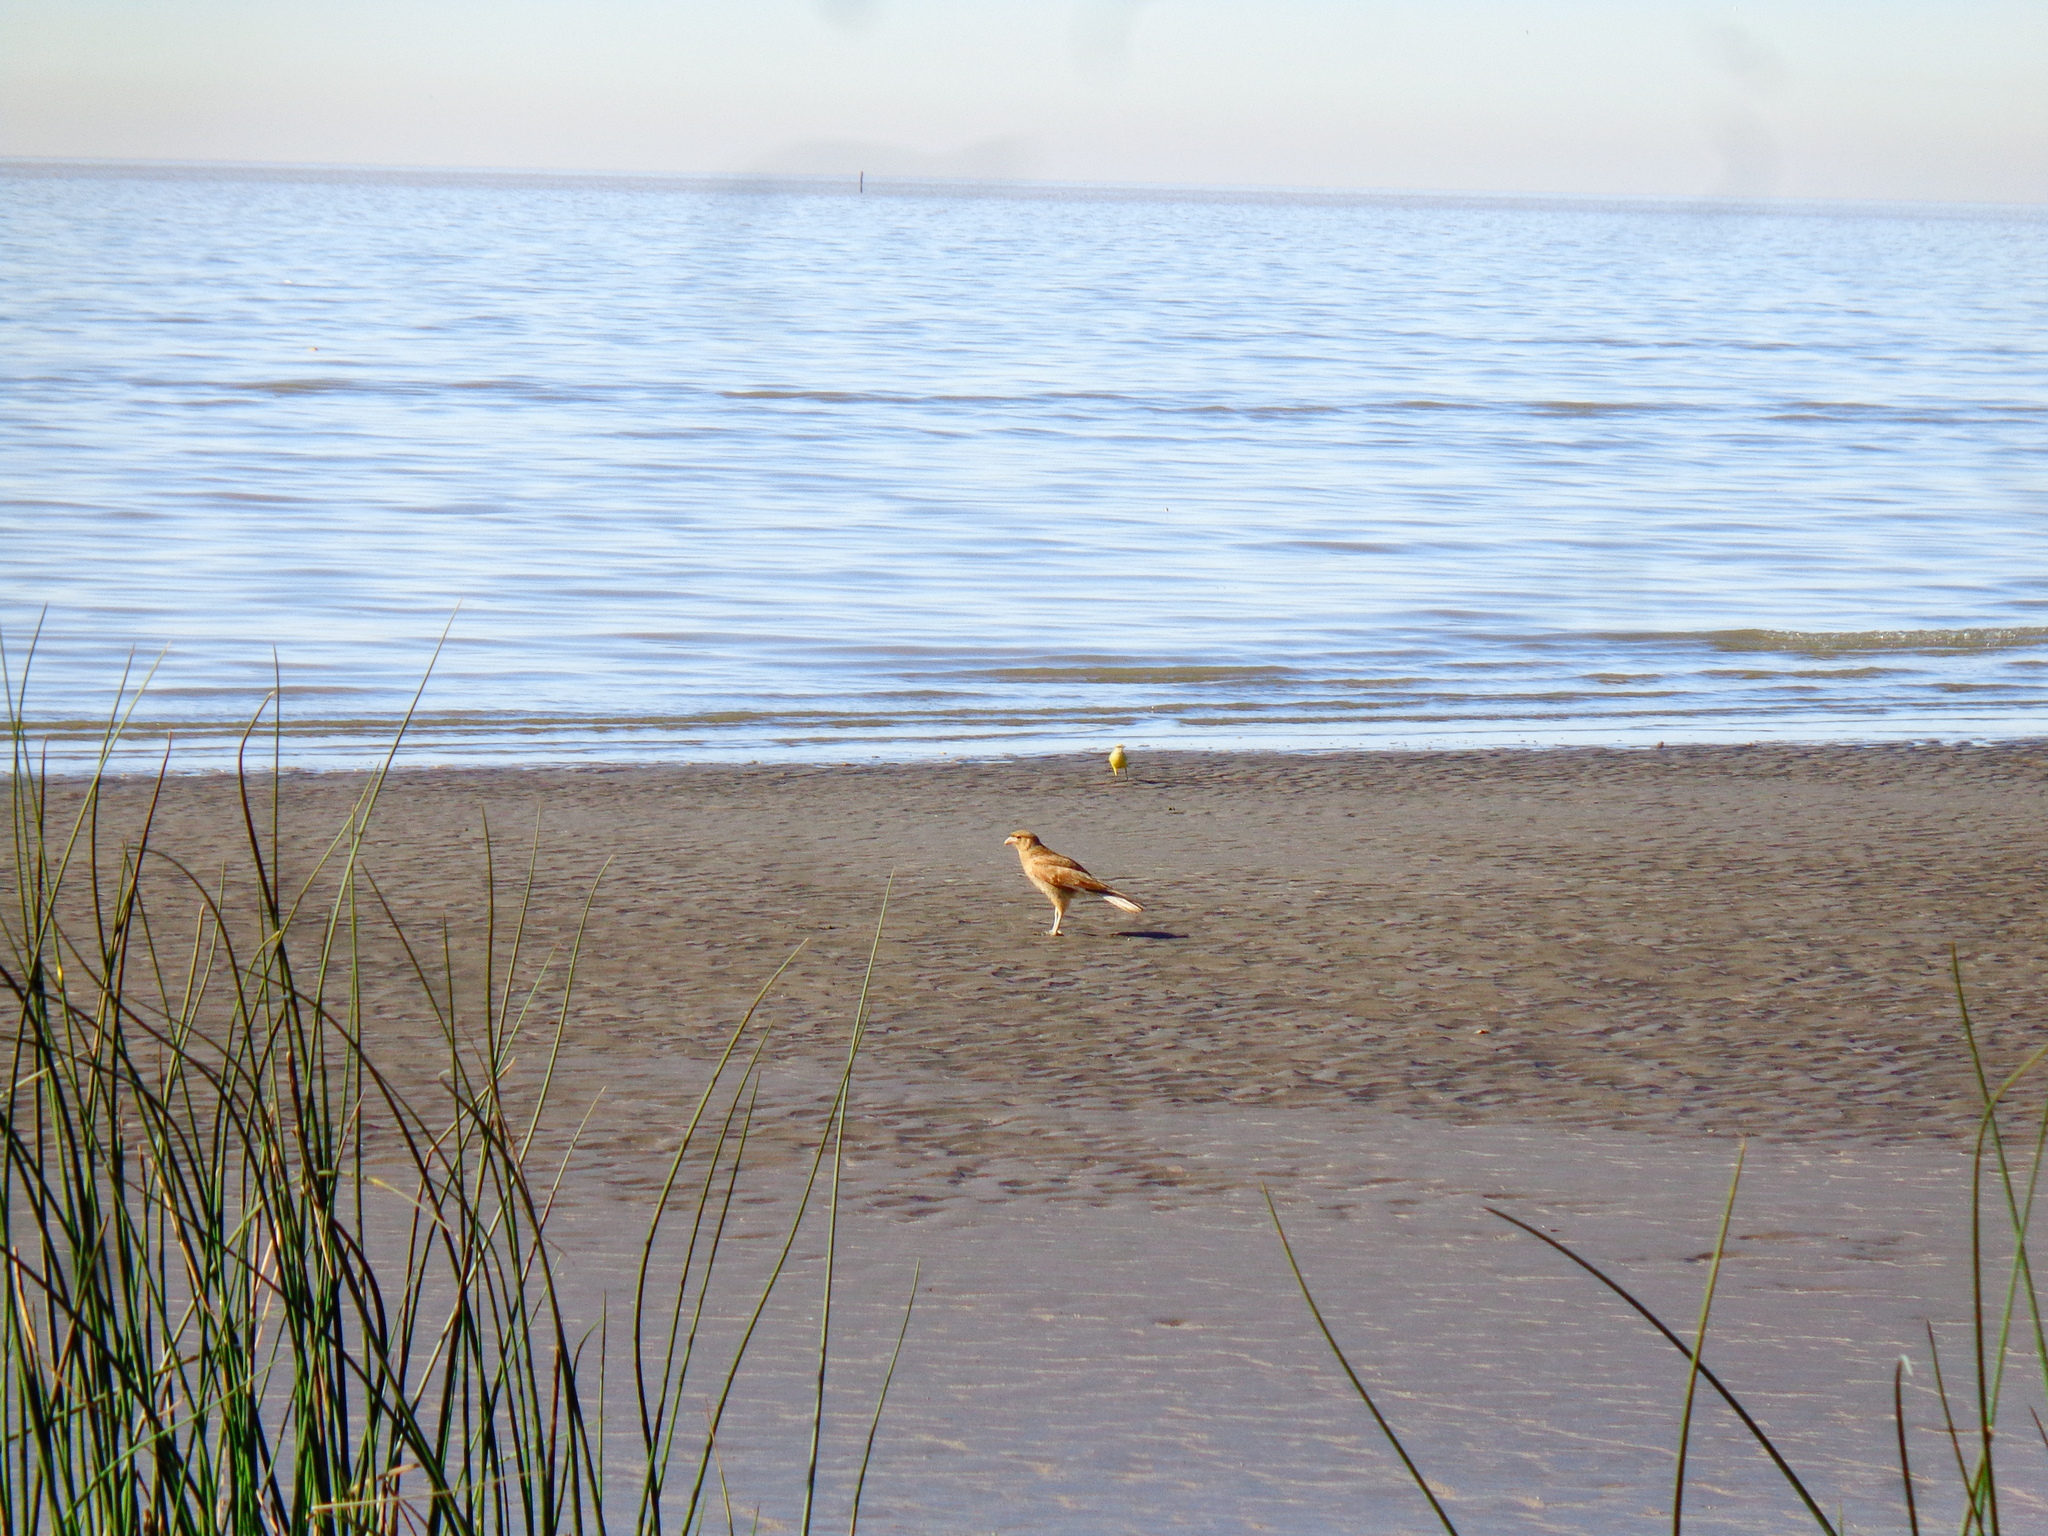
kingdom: Animalia
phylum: Chordata
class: Aves
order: Falconiformes
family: Falconidae
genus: Daptrius
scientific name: Daptrius
